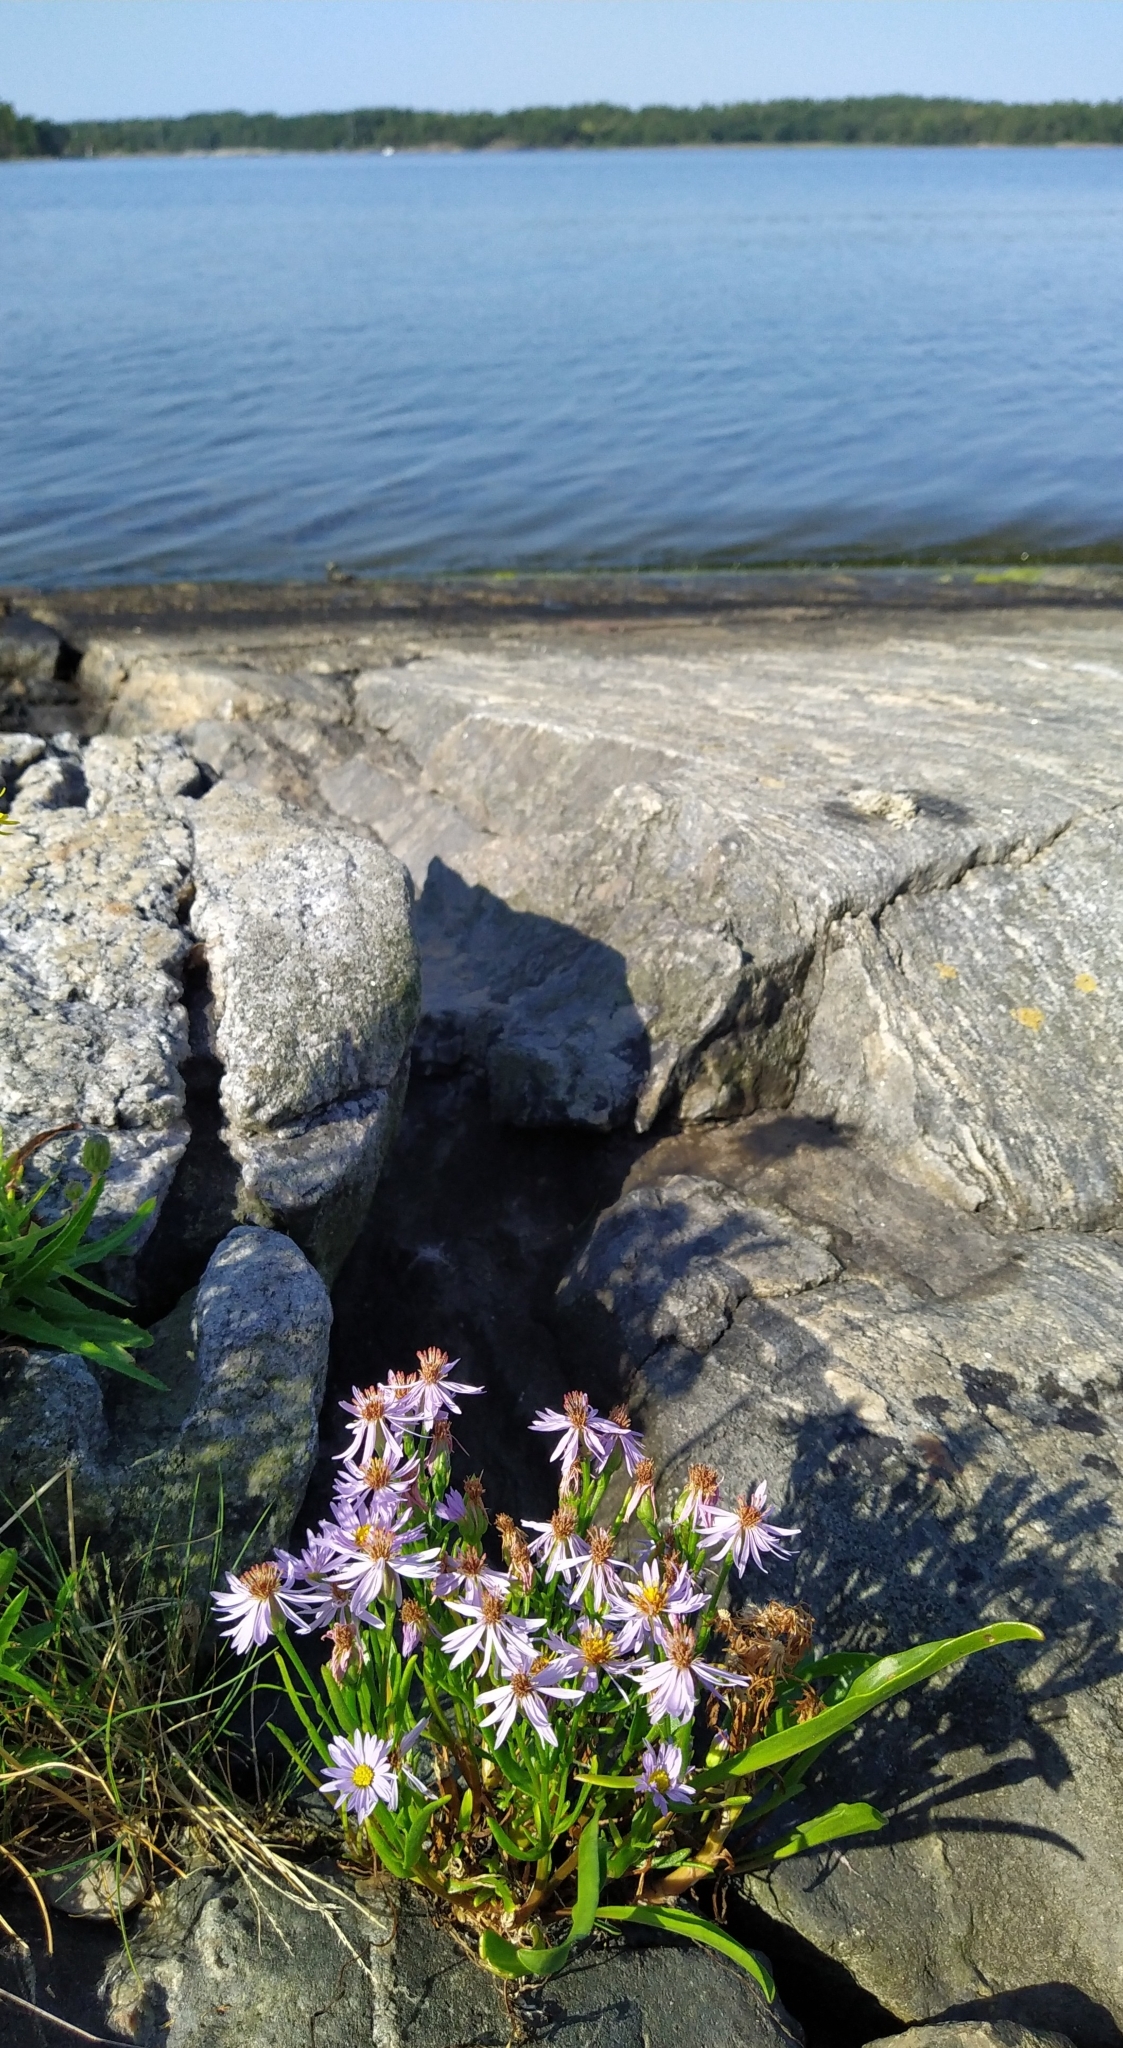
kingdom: Plantae
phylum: Tracheophyta
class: Magnoliopsida
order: Asterales
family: Asteraceae
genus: Tripolium
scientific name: Tripolium pannonicum
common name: Sea aster
